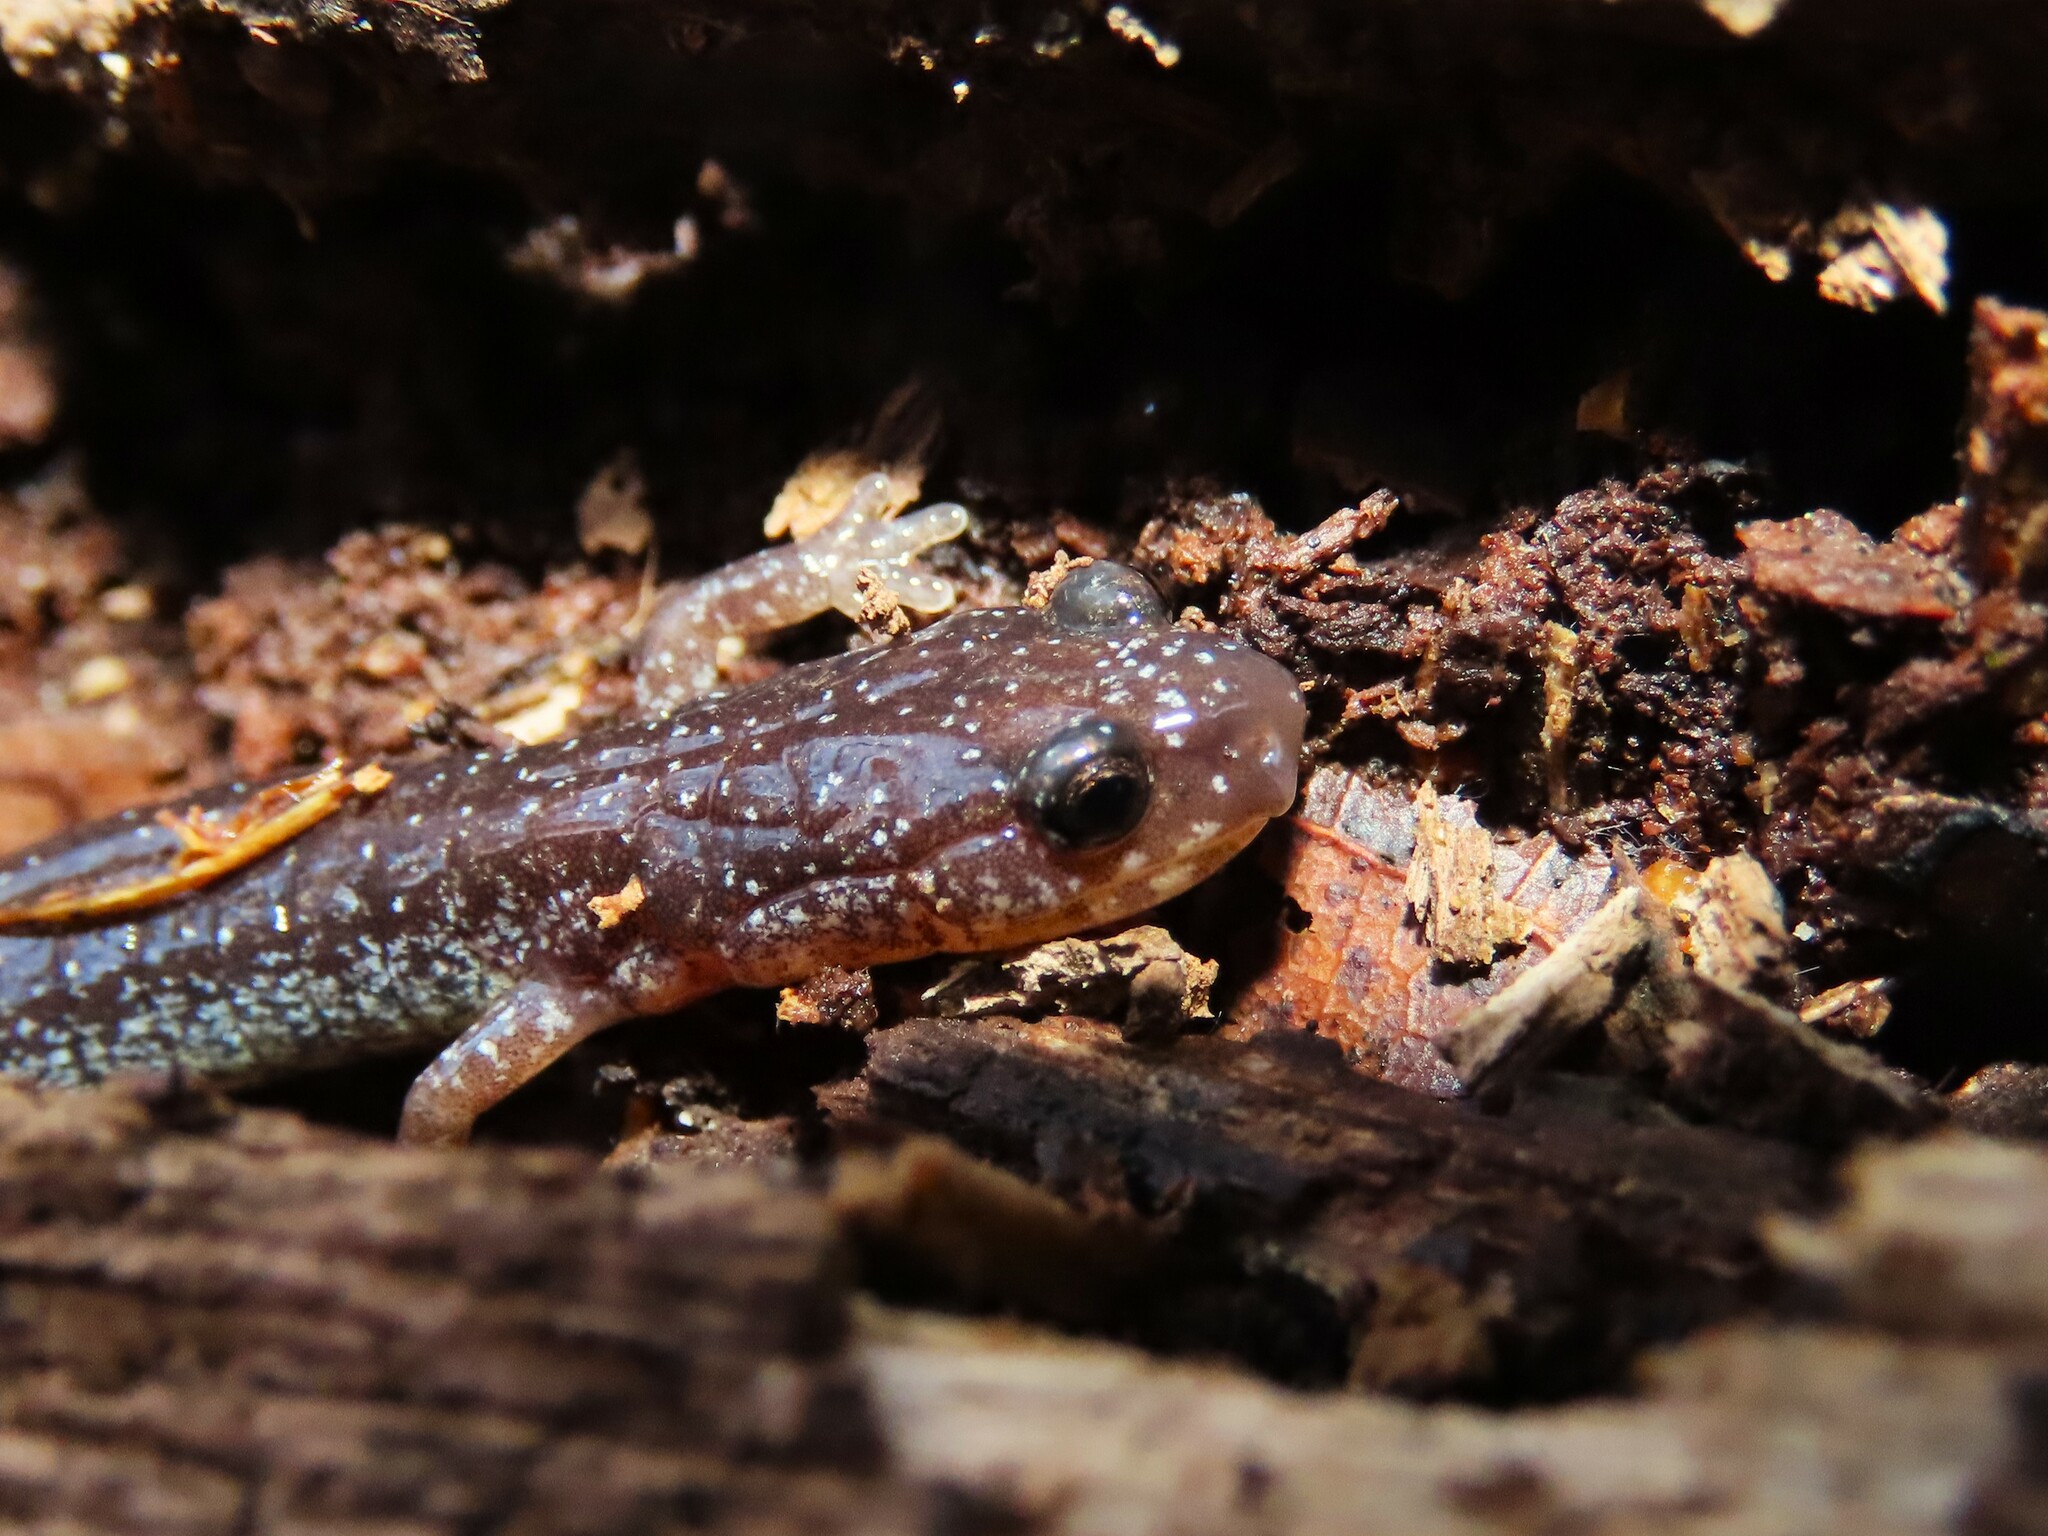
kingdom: Animalia
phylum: Chordata
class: Amphibia
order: Caudata
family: Plethodontidae
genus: Plethodon
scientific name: Plethodon cinereus
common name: Redback salamander
